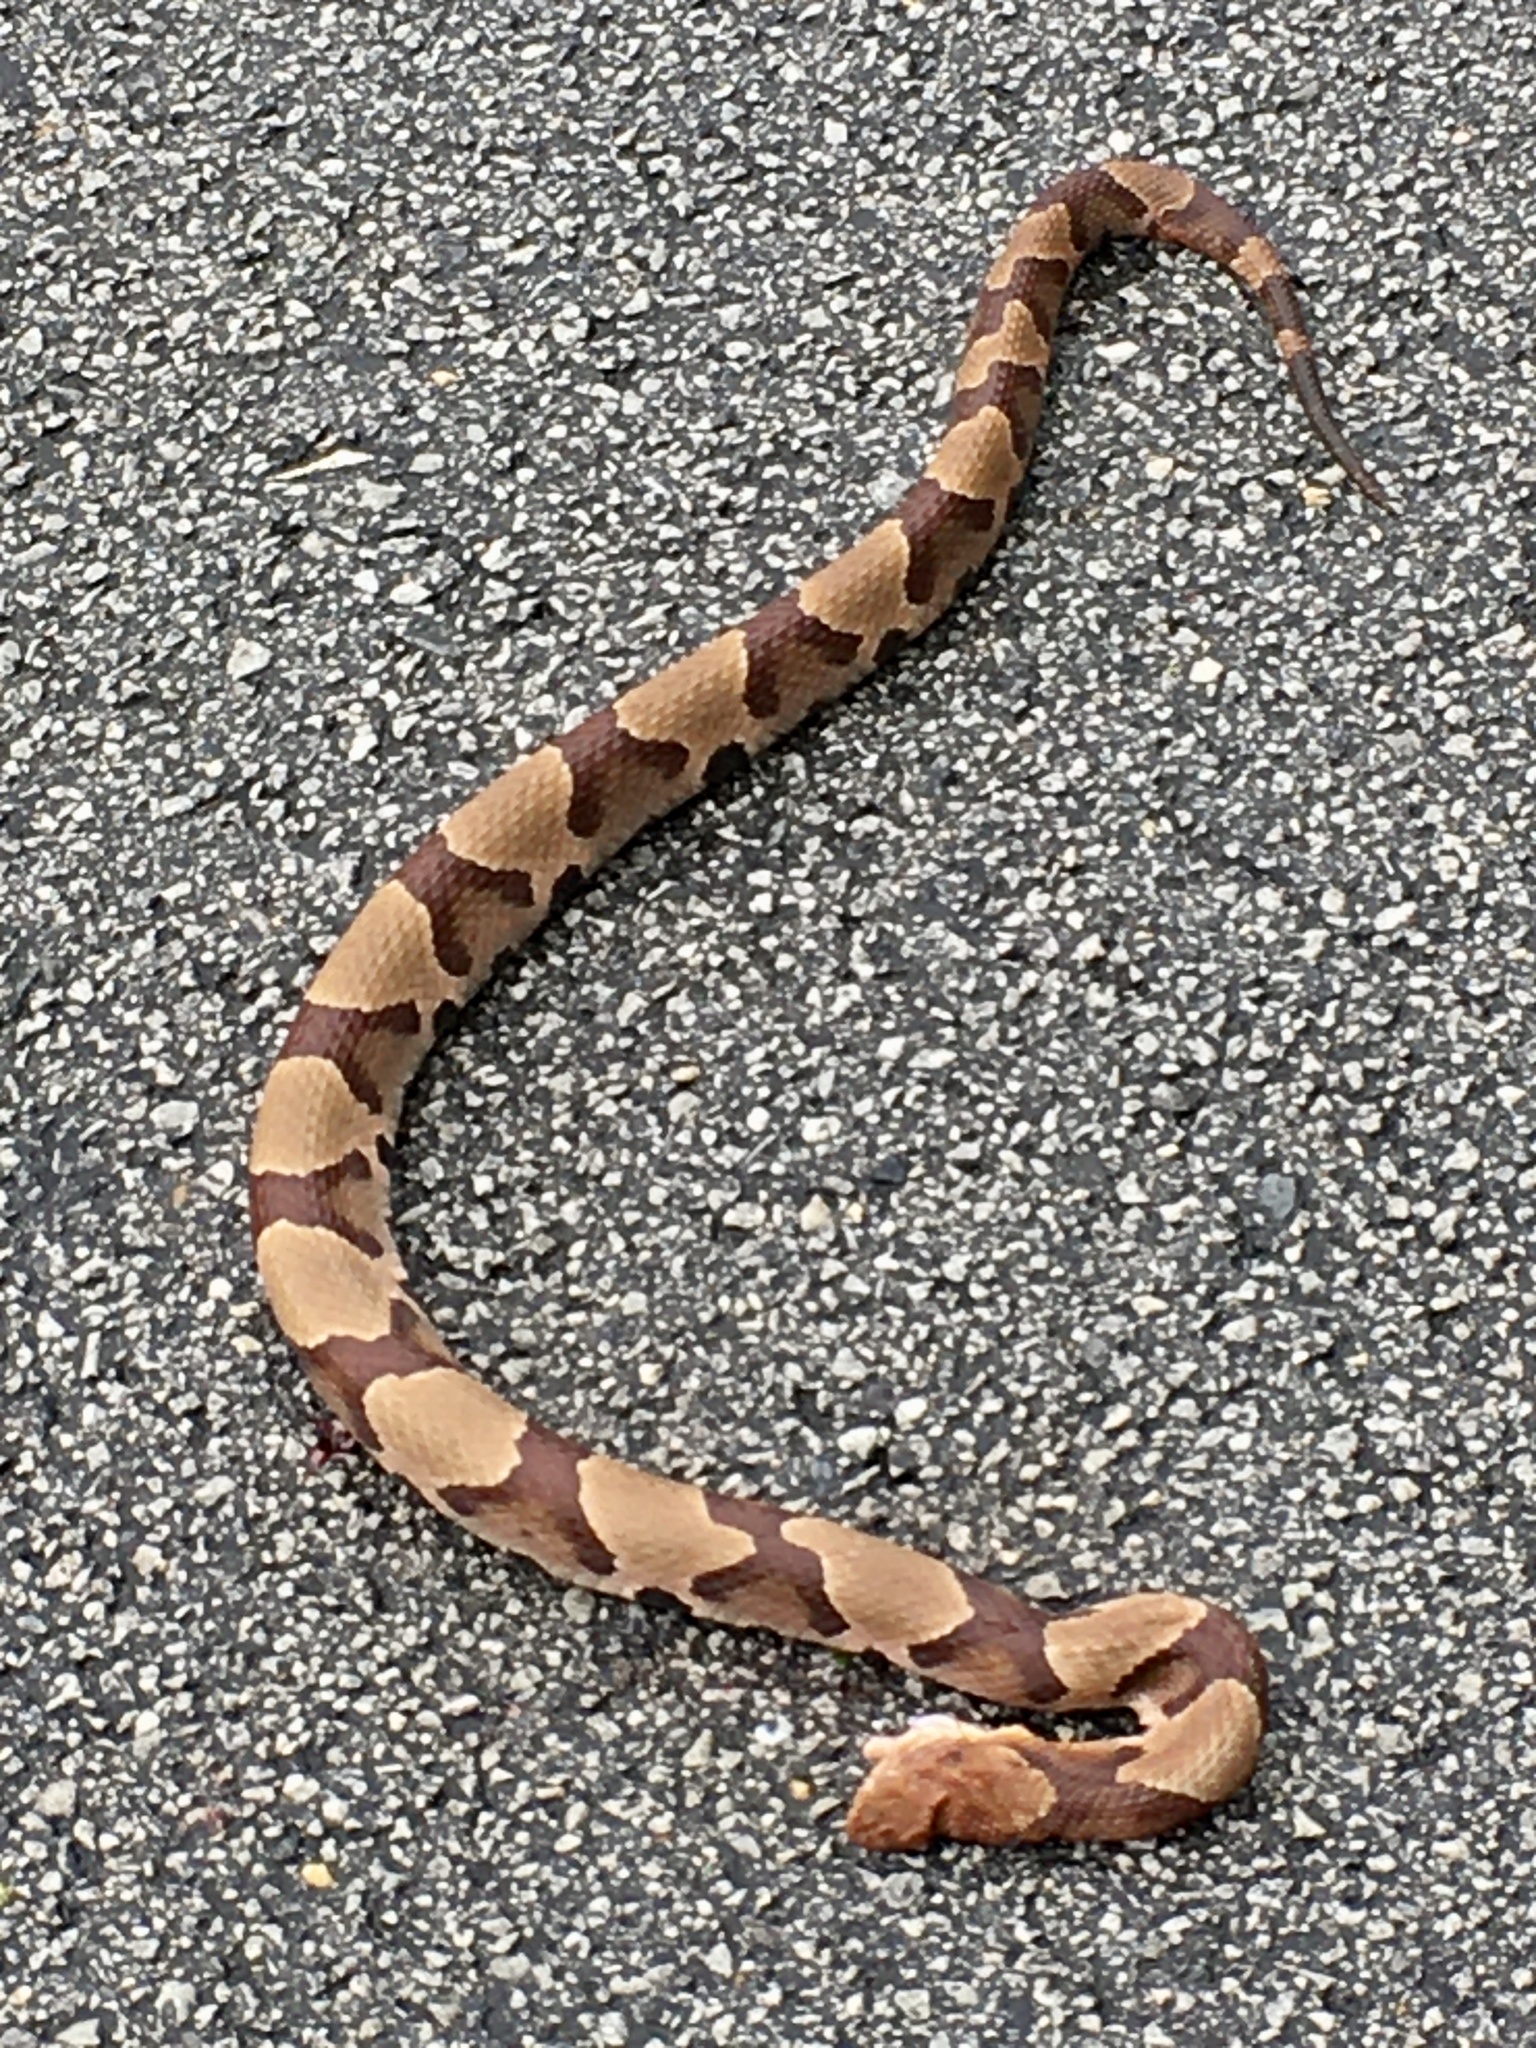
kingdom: Animalia
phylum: Chordata
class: Squamata
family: Viperidae
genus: Agkistrodon
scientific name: Agkistrodon contortrix
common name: Northern copperhead
